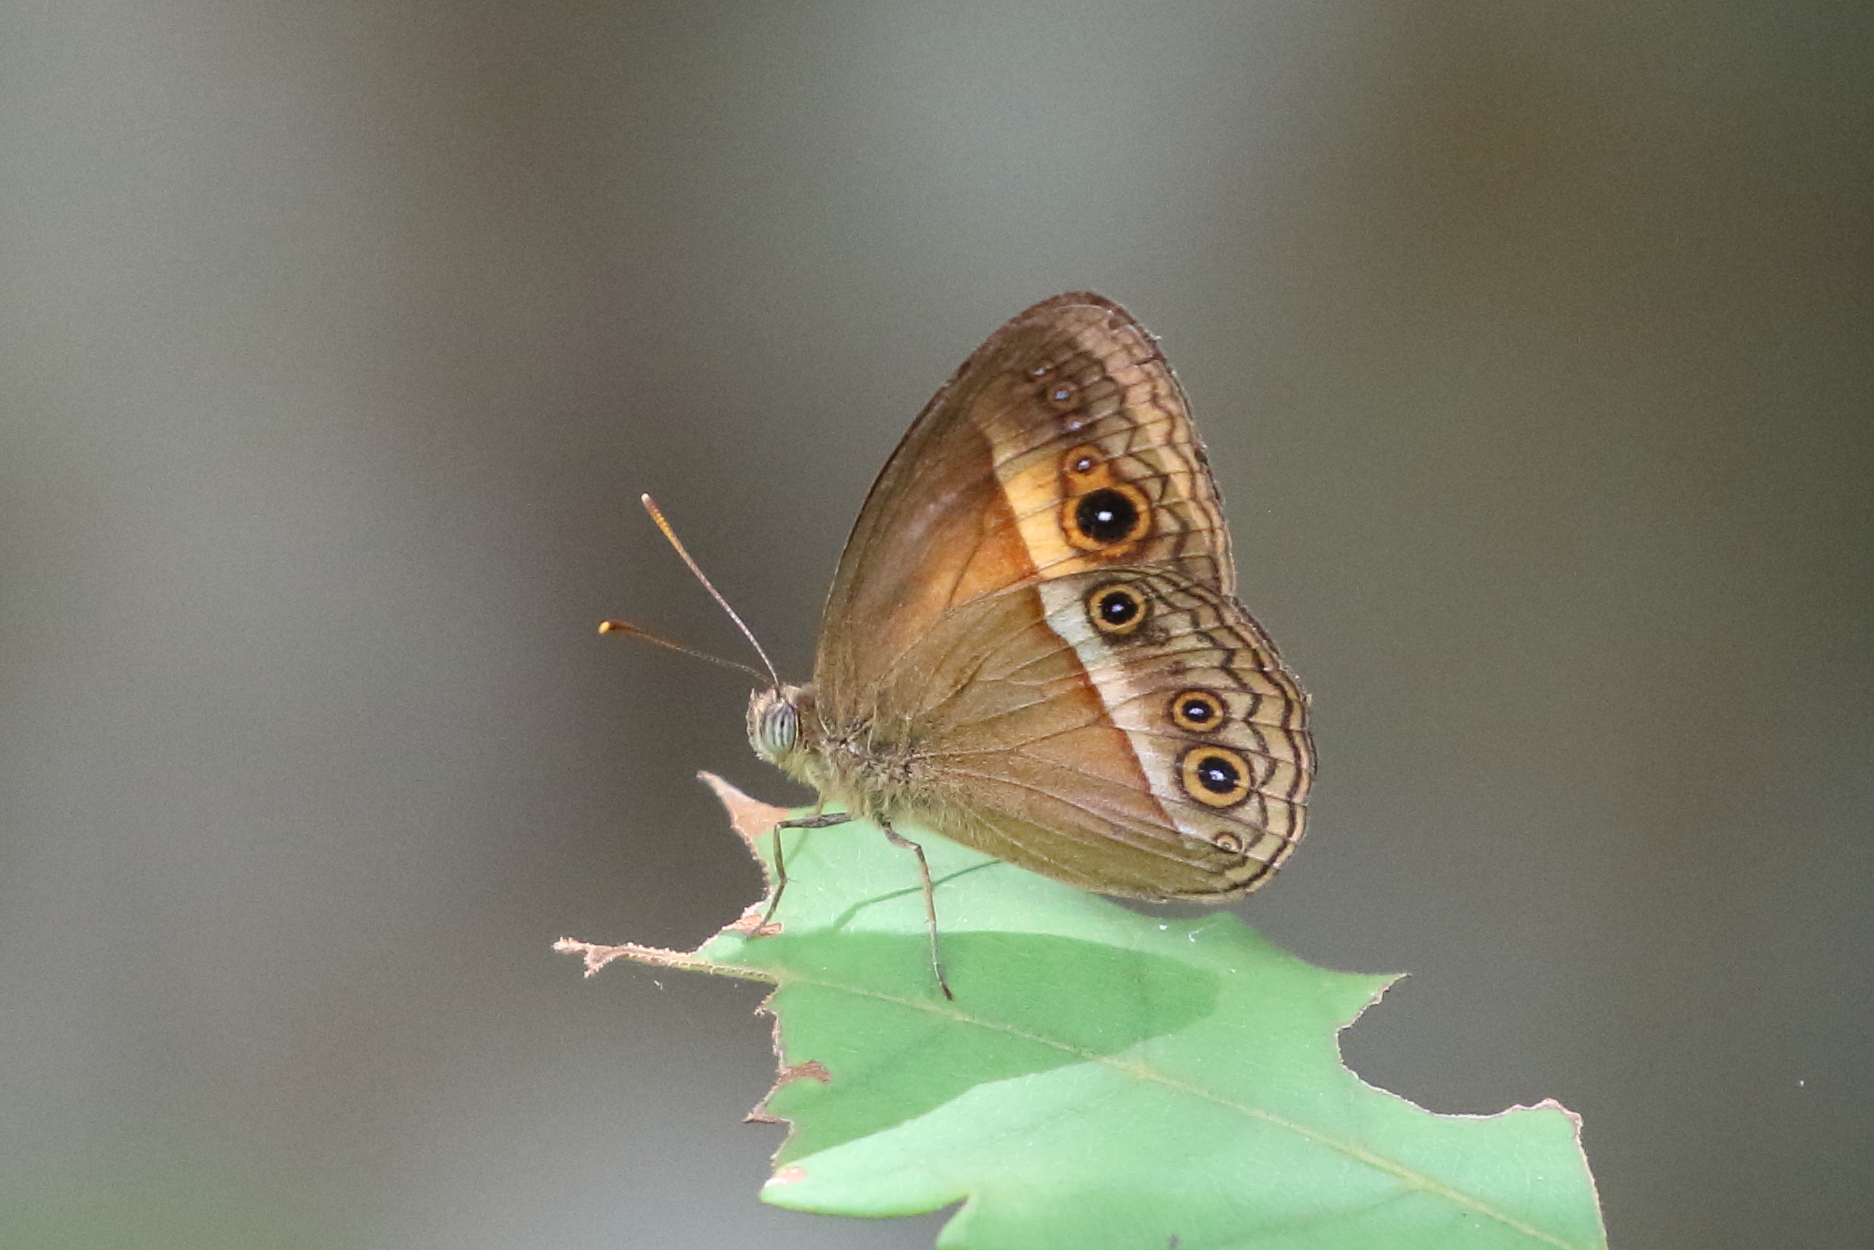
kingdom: Animalia
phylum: Arthropoda
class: Insecta
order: Lepidoptera
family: Nymphalidae
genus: Mycalesis
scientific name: Mycalesis terminus
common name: Orange bushbrown
